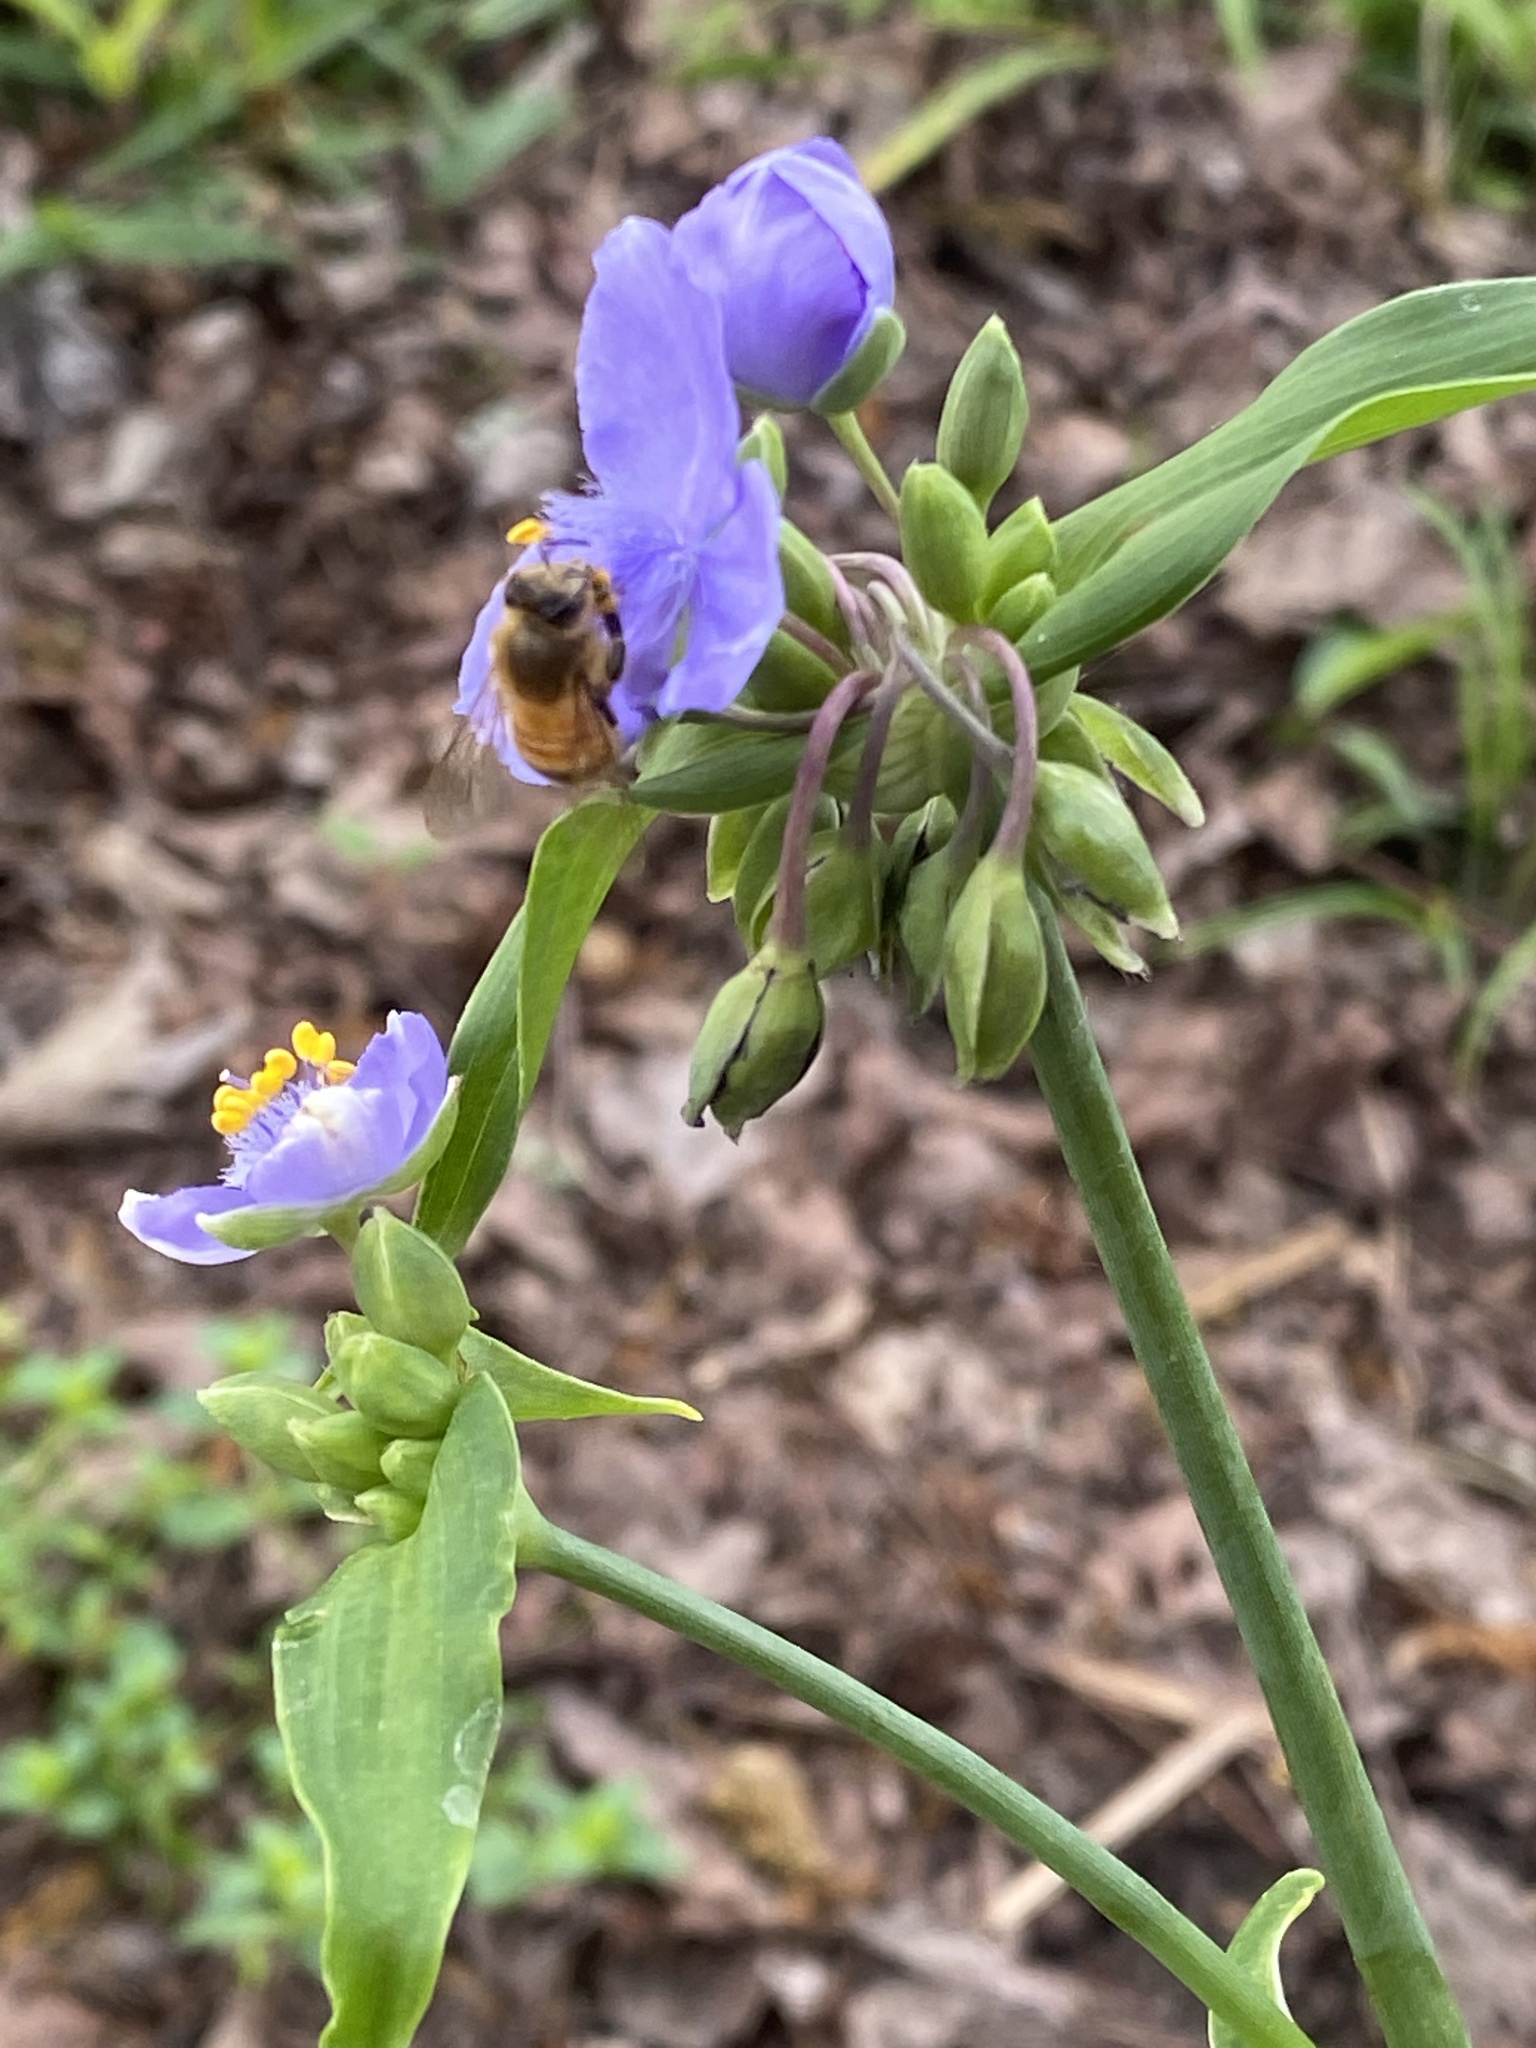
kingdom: Animalia
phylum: Arthropoda
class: Insecta
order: Hymenoptera
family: Apidae
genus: Apis
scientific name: Apis mellifera
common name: Honey bee
